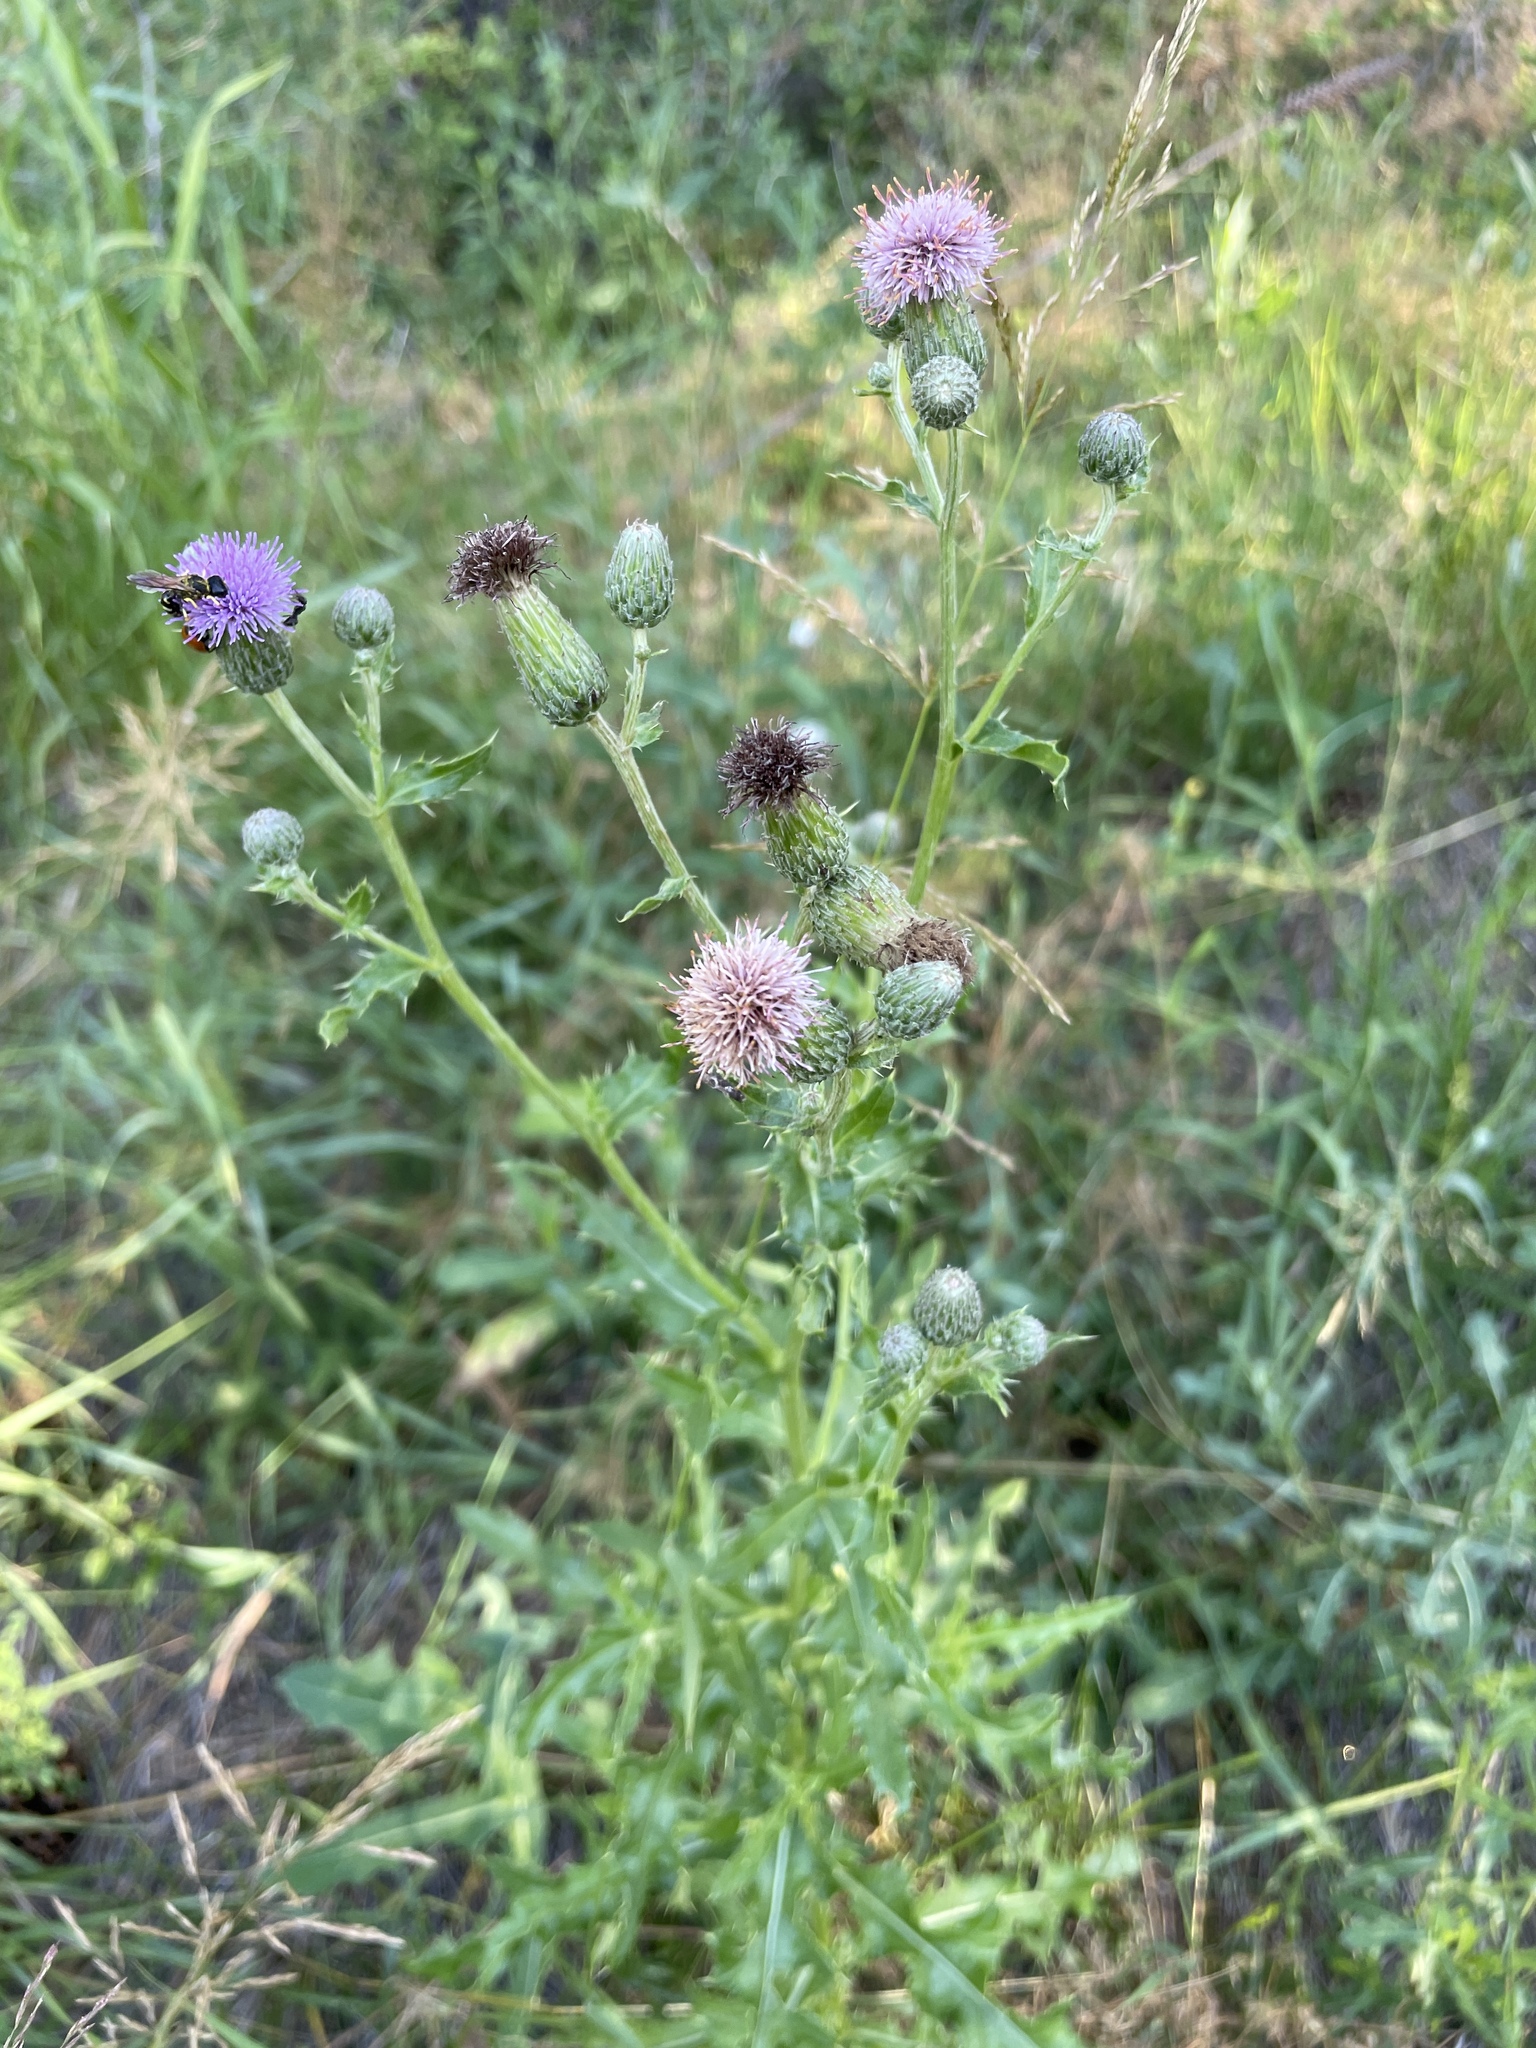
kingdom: Plantae
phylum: Tracheophyta
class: Magnoliopsida
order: Asterales
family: Asteraceae
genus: Cirsium
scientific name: Cirsium arvense
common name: Creeping thistle
